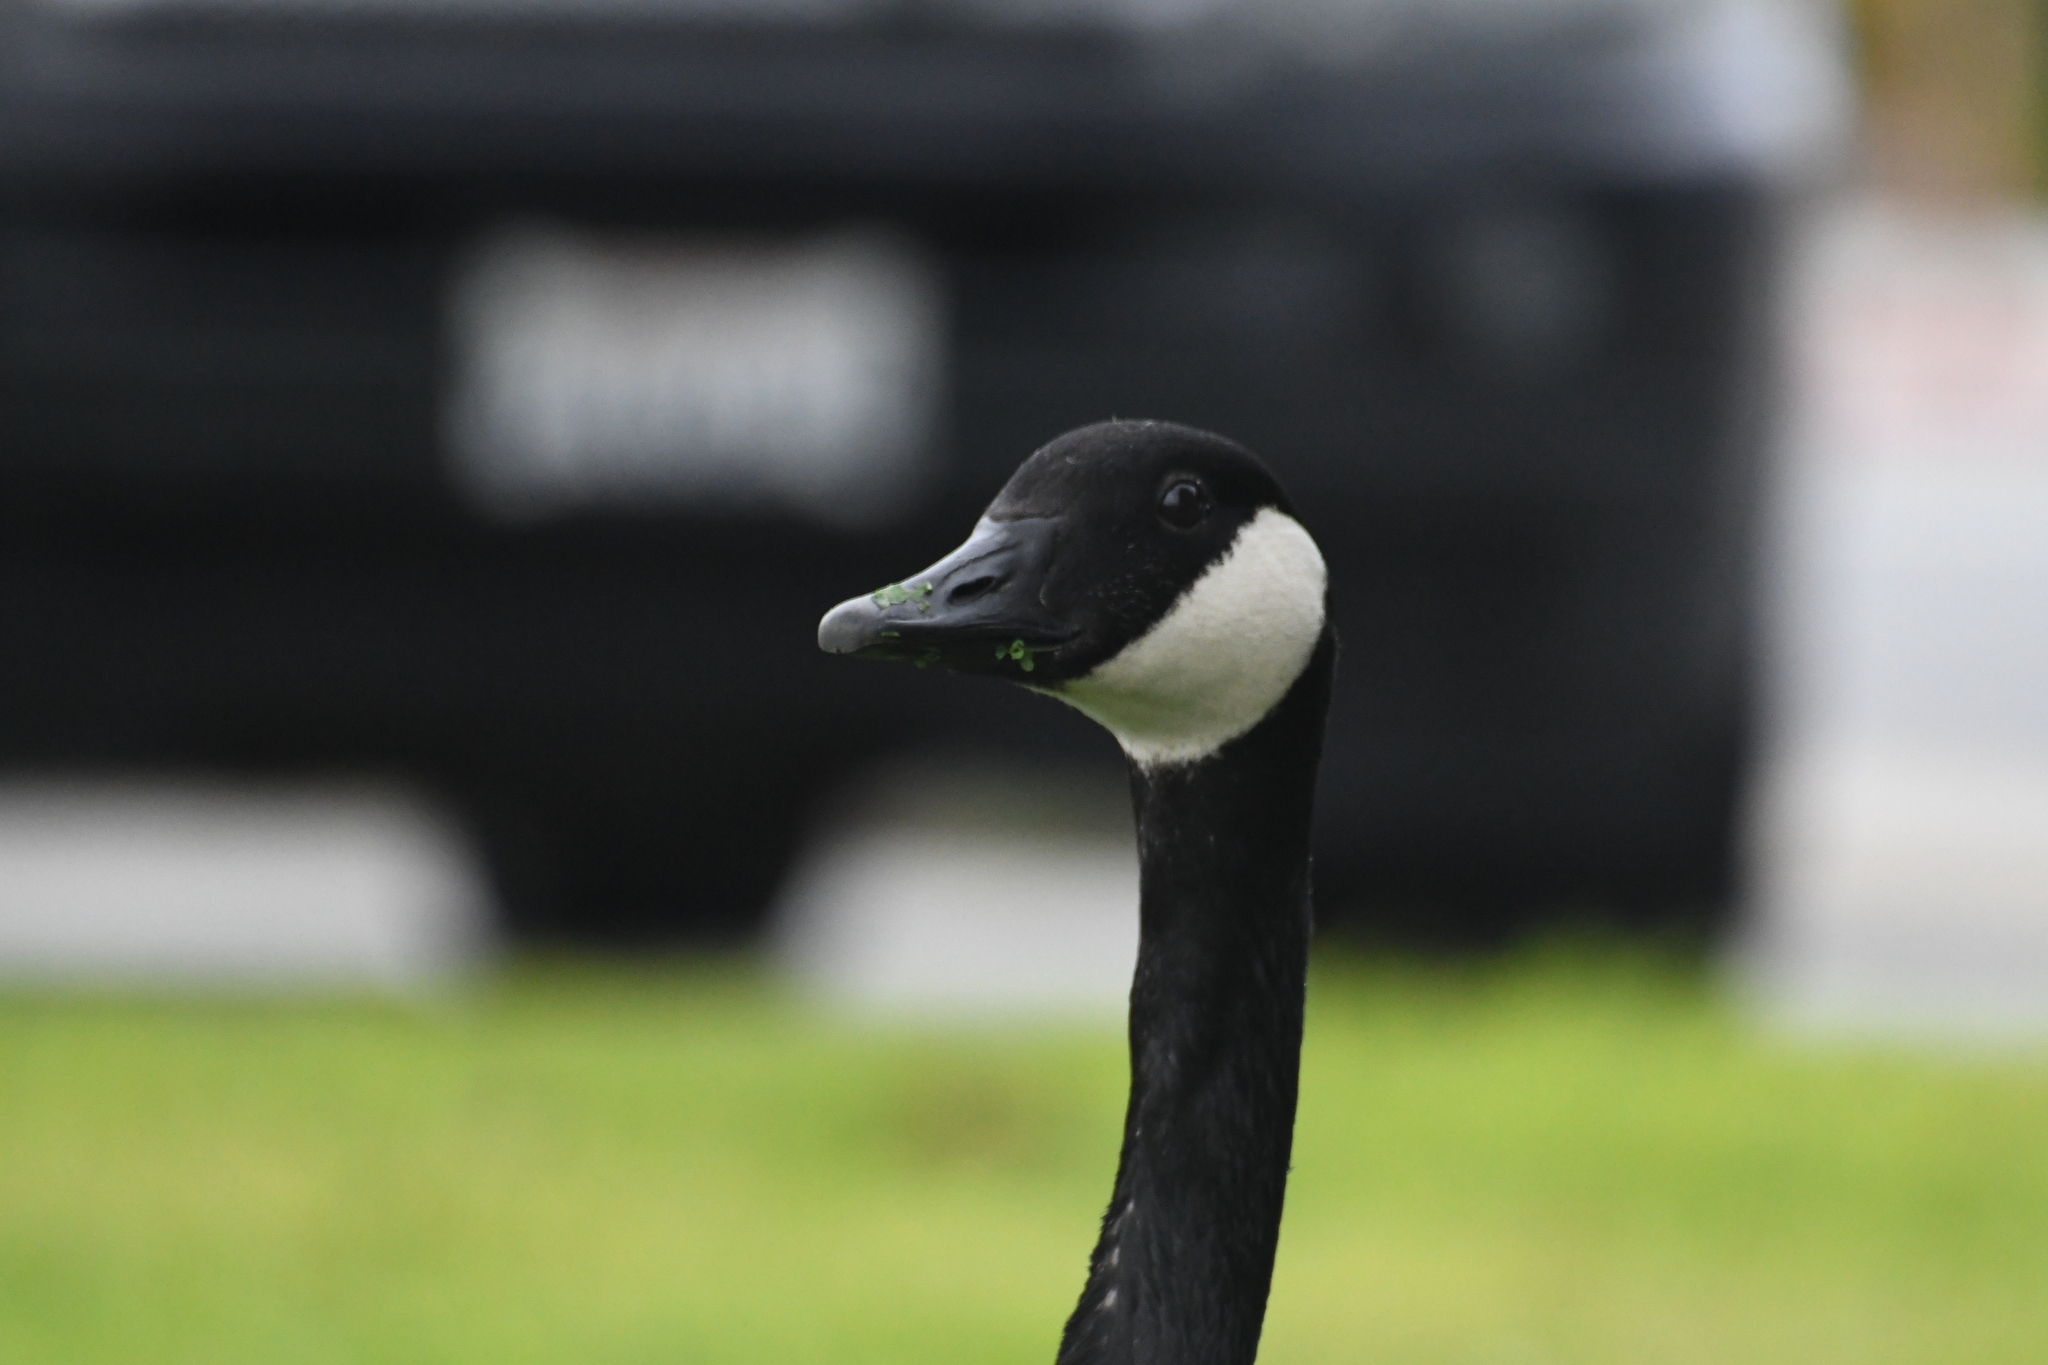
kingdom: Animalia
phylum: Chordata
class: Aves
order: Anseriformes
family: Anatidae
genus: Branta
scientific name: Branta canadensis
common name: Canada goose
